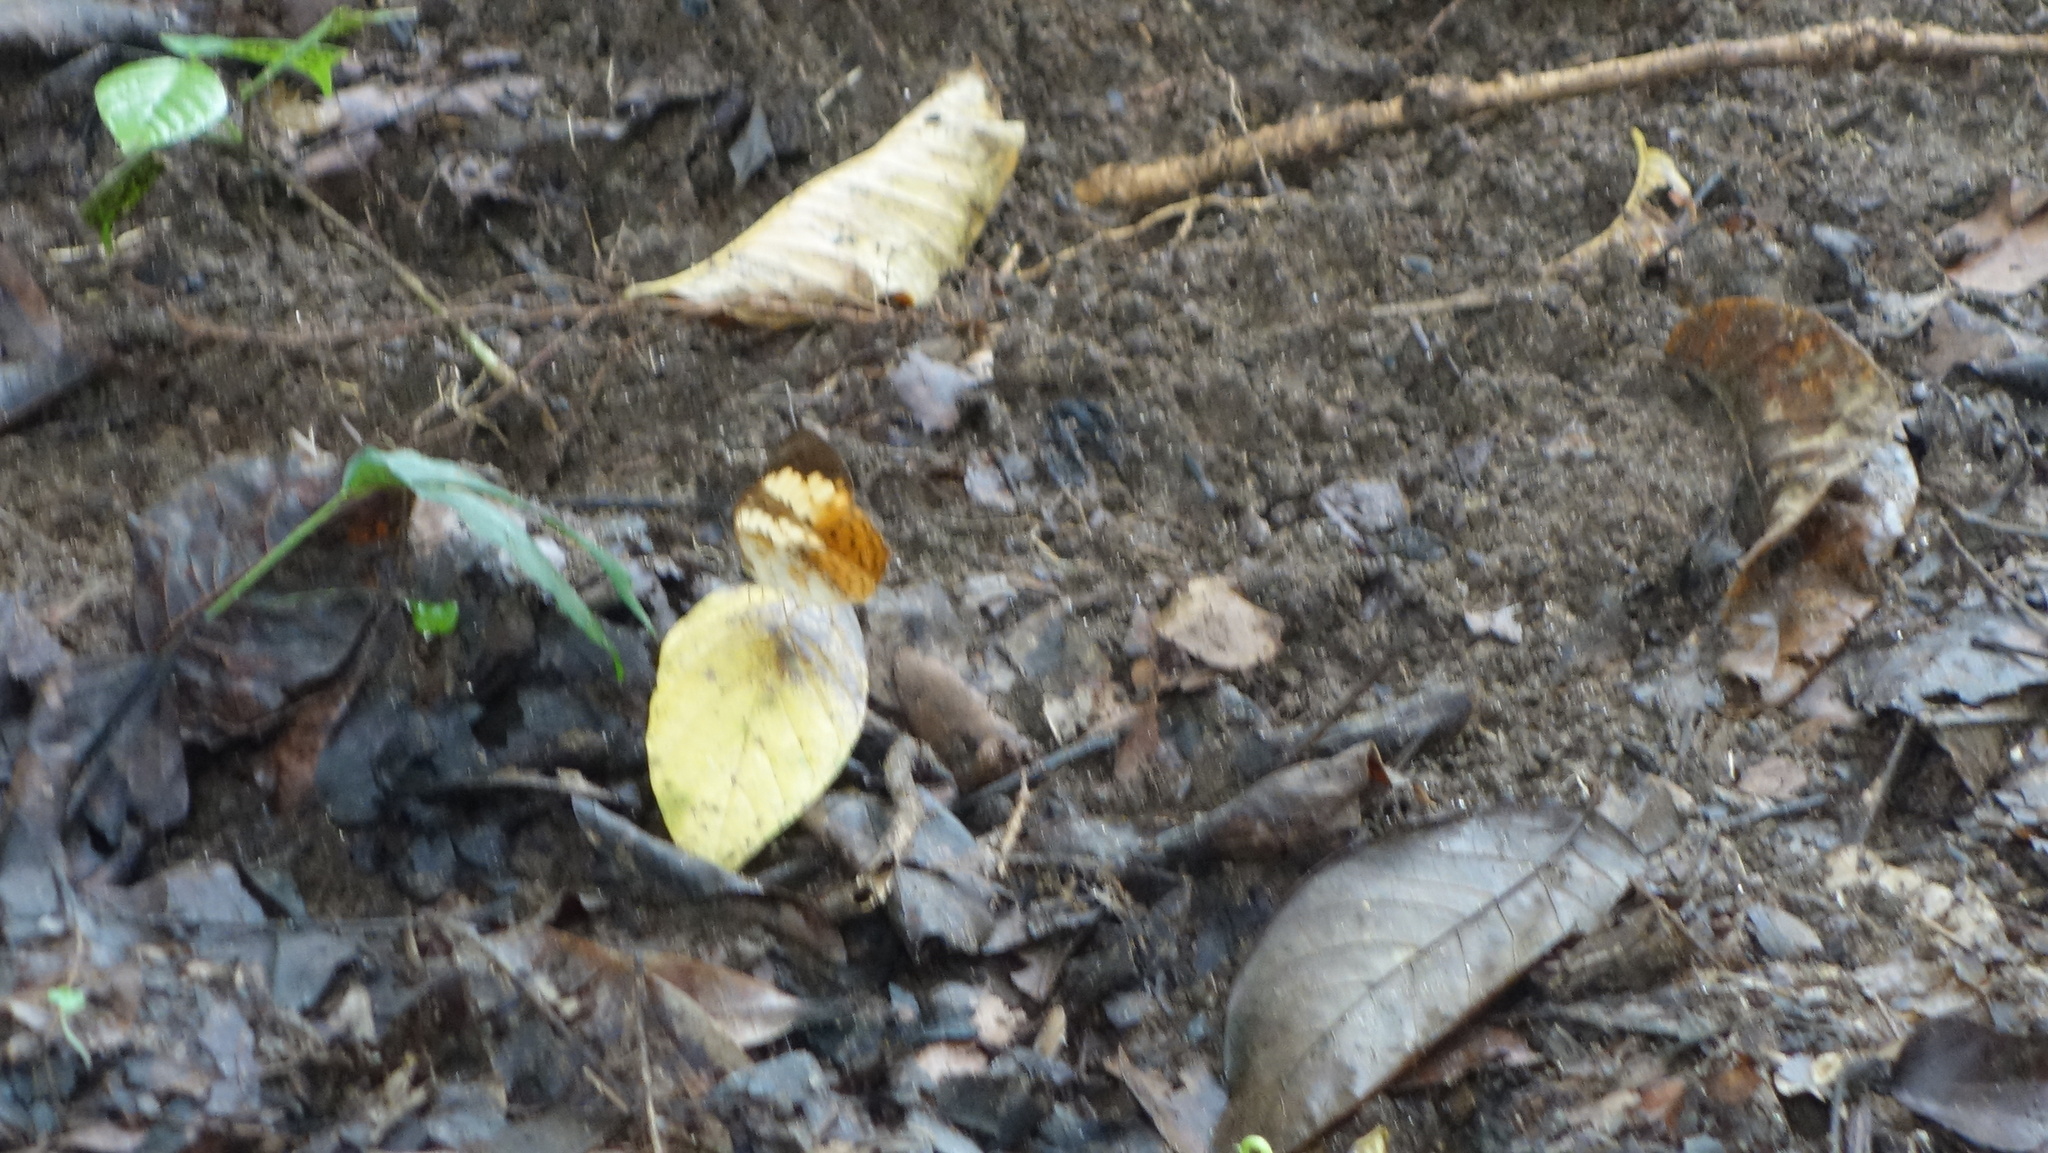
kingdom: Animalia
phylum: Arthropoda
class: Insecta
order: Lepidoptera
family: Nymphalidae
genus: Cupha
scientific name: Cupha erymanthis
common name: Rustic
